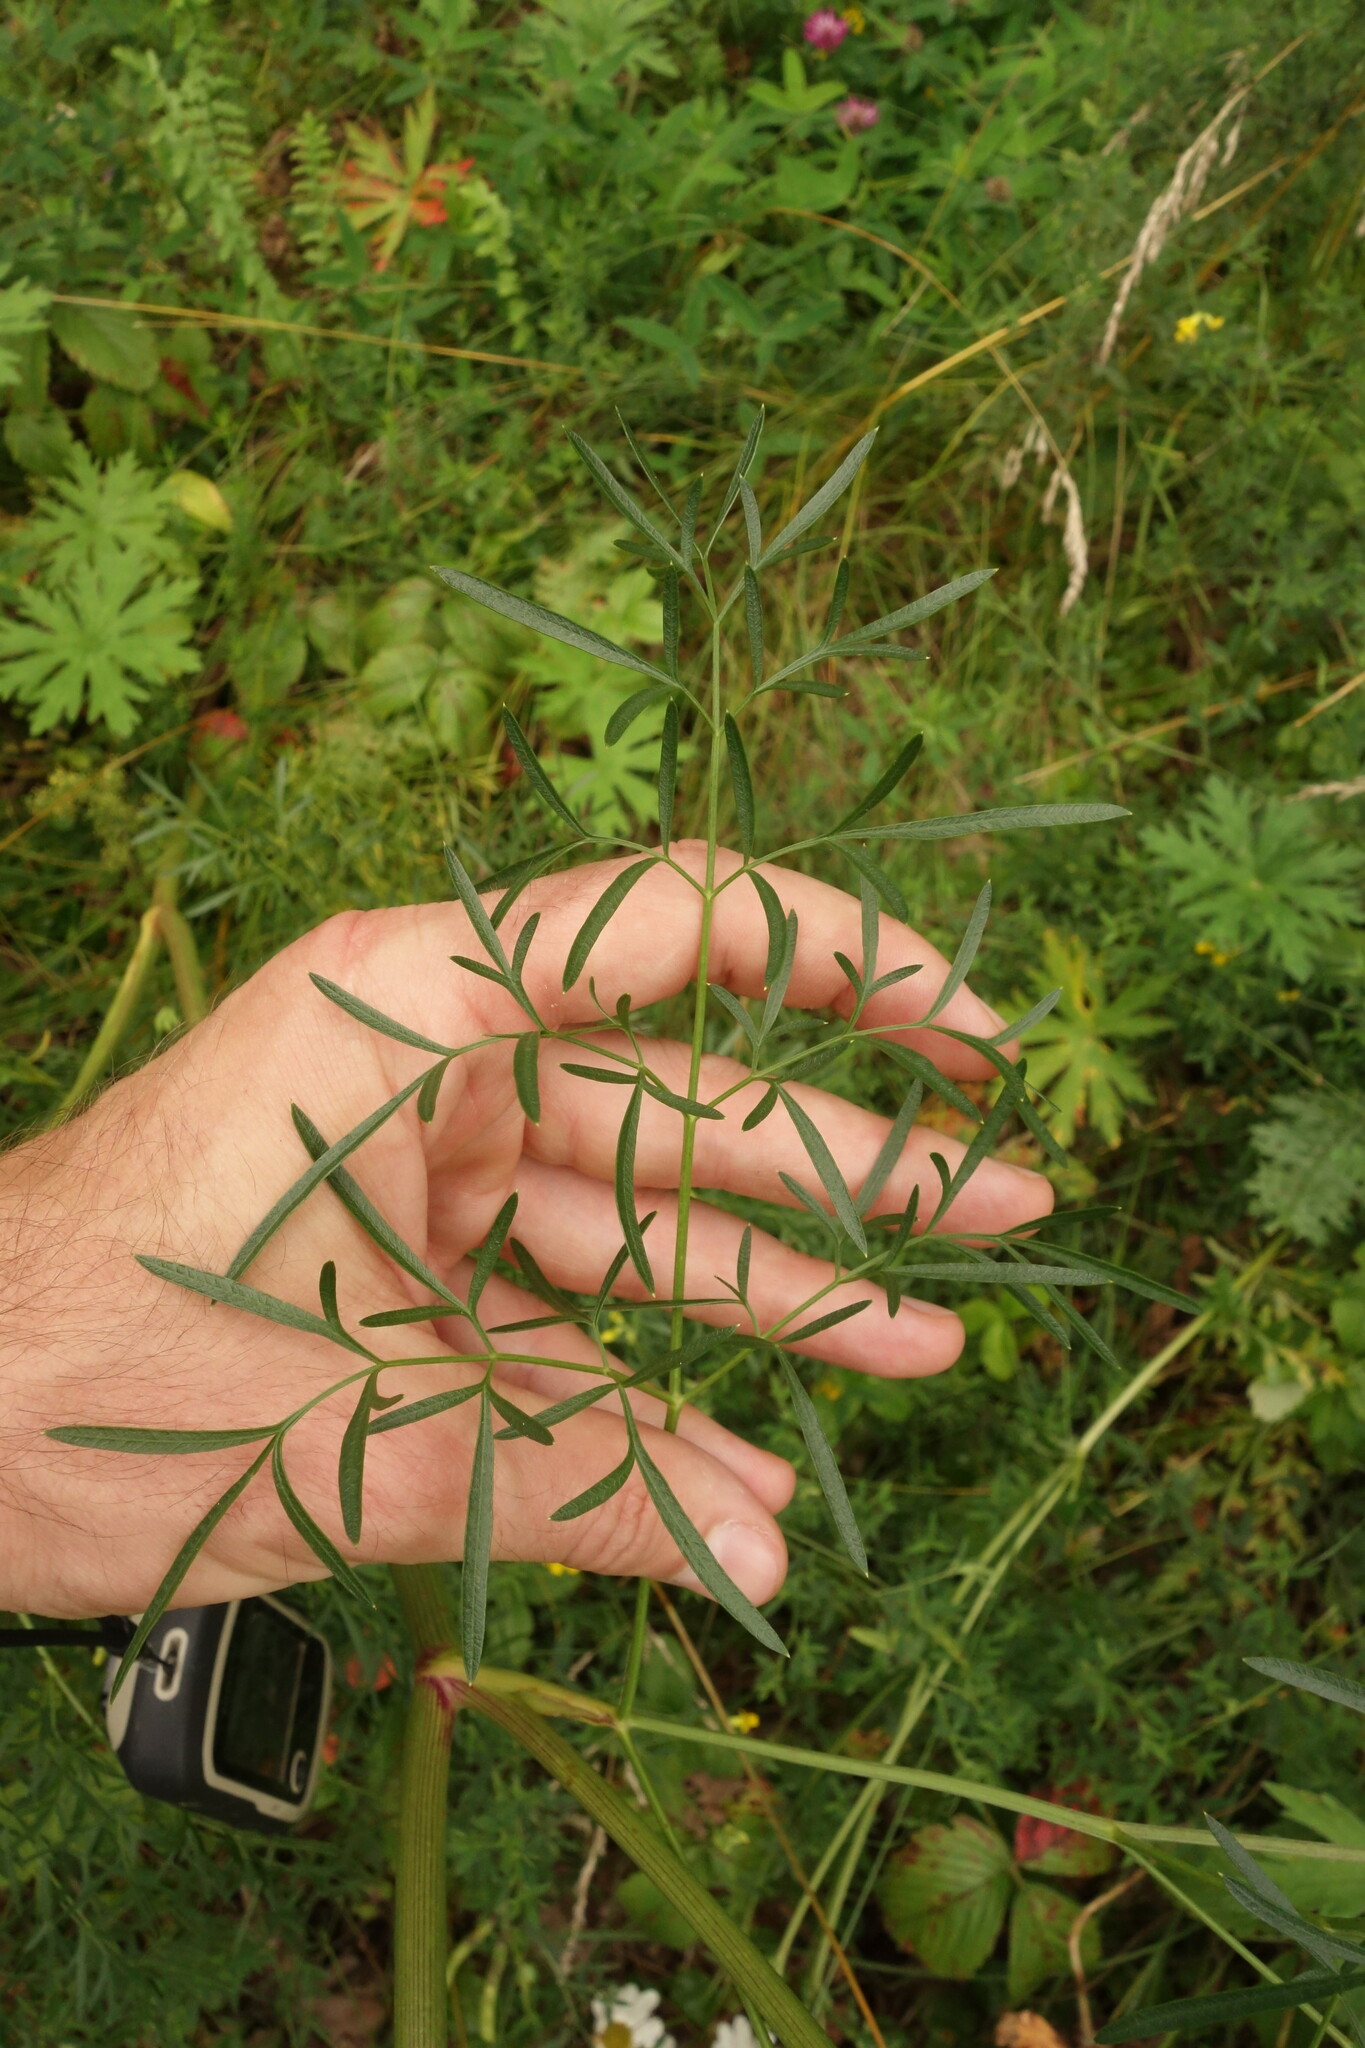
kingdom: Plantae
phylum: Tracheophyta
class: Magnoliopsida
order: Apiales
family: Apiaceae
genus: Silaum
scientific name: Silaum silaus
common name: Pepper-saxifrage
